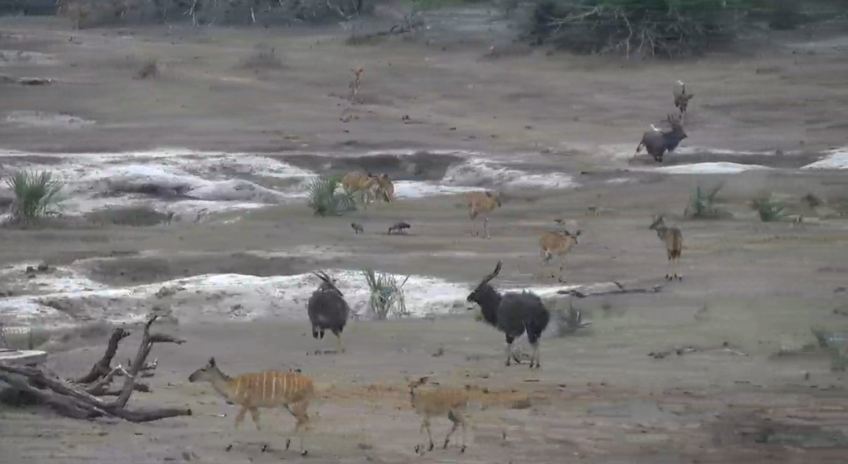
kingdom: Animalia
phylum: Chordata
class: Mammalia
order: Artiodactyla
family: Bovidae
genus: Tragelaphus
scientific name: Tragelaphus angasii
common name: Nyala
